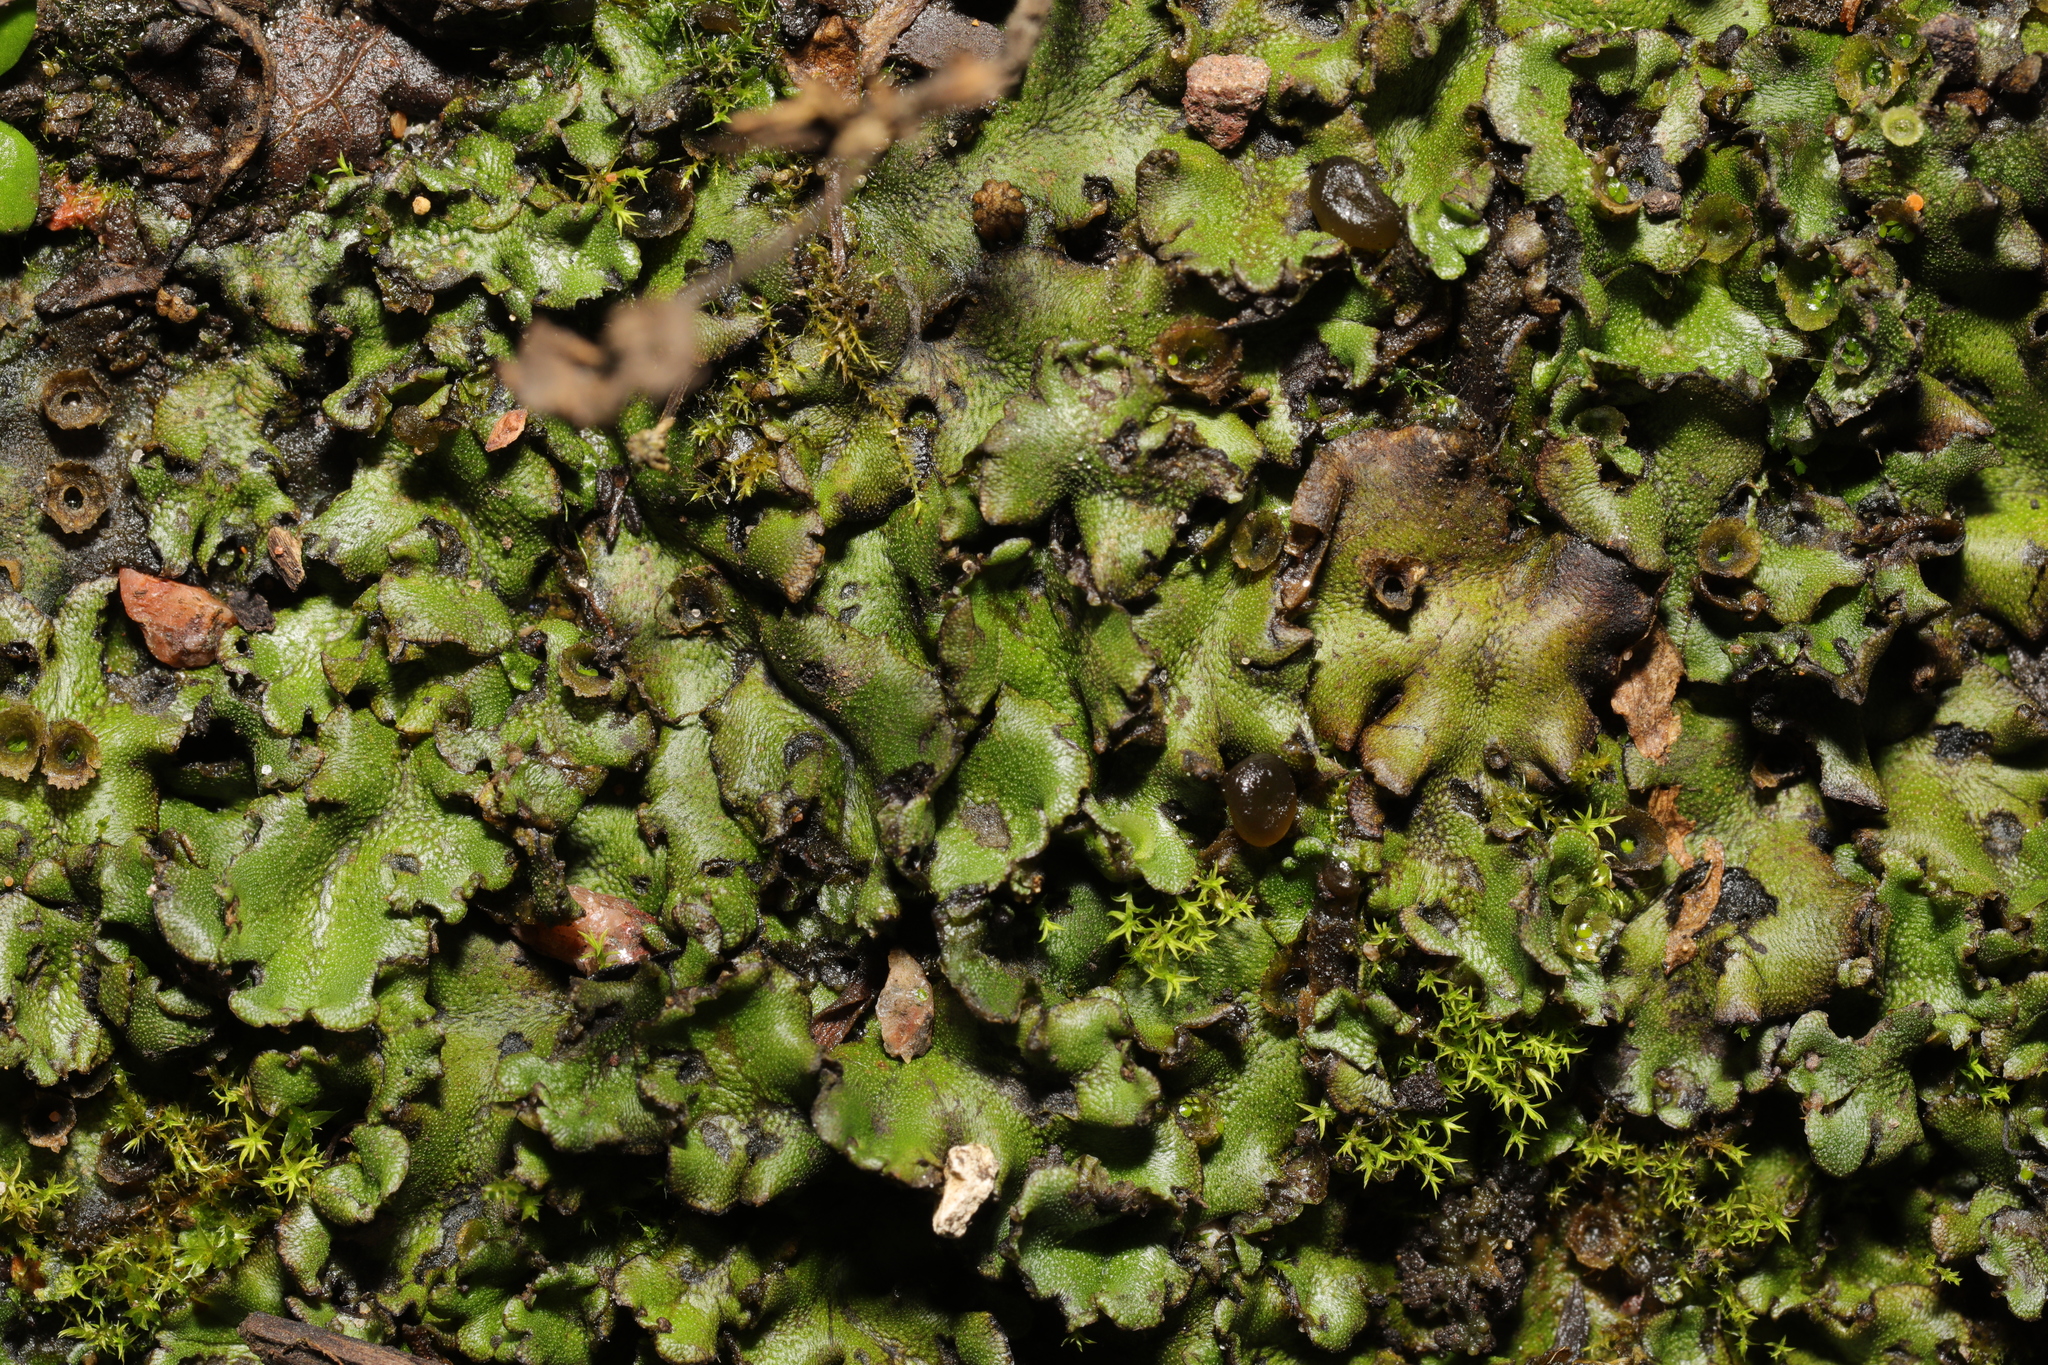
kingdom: Plantae
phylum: Marchantiophyta
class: Marchantiopsida
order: Marchantiales
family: Marchantiaceae
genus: Marchantia
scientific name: Marchantia polymorpha
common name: Common liverwort
